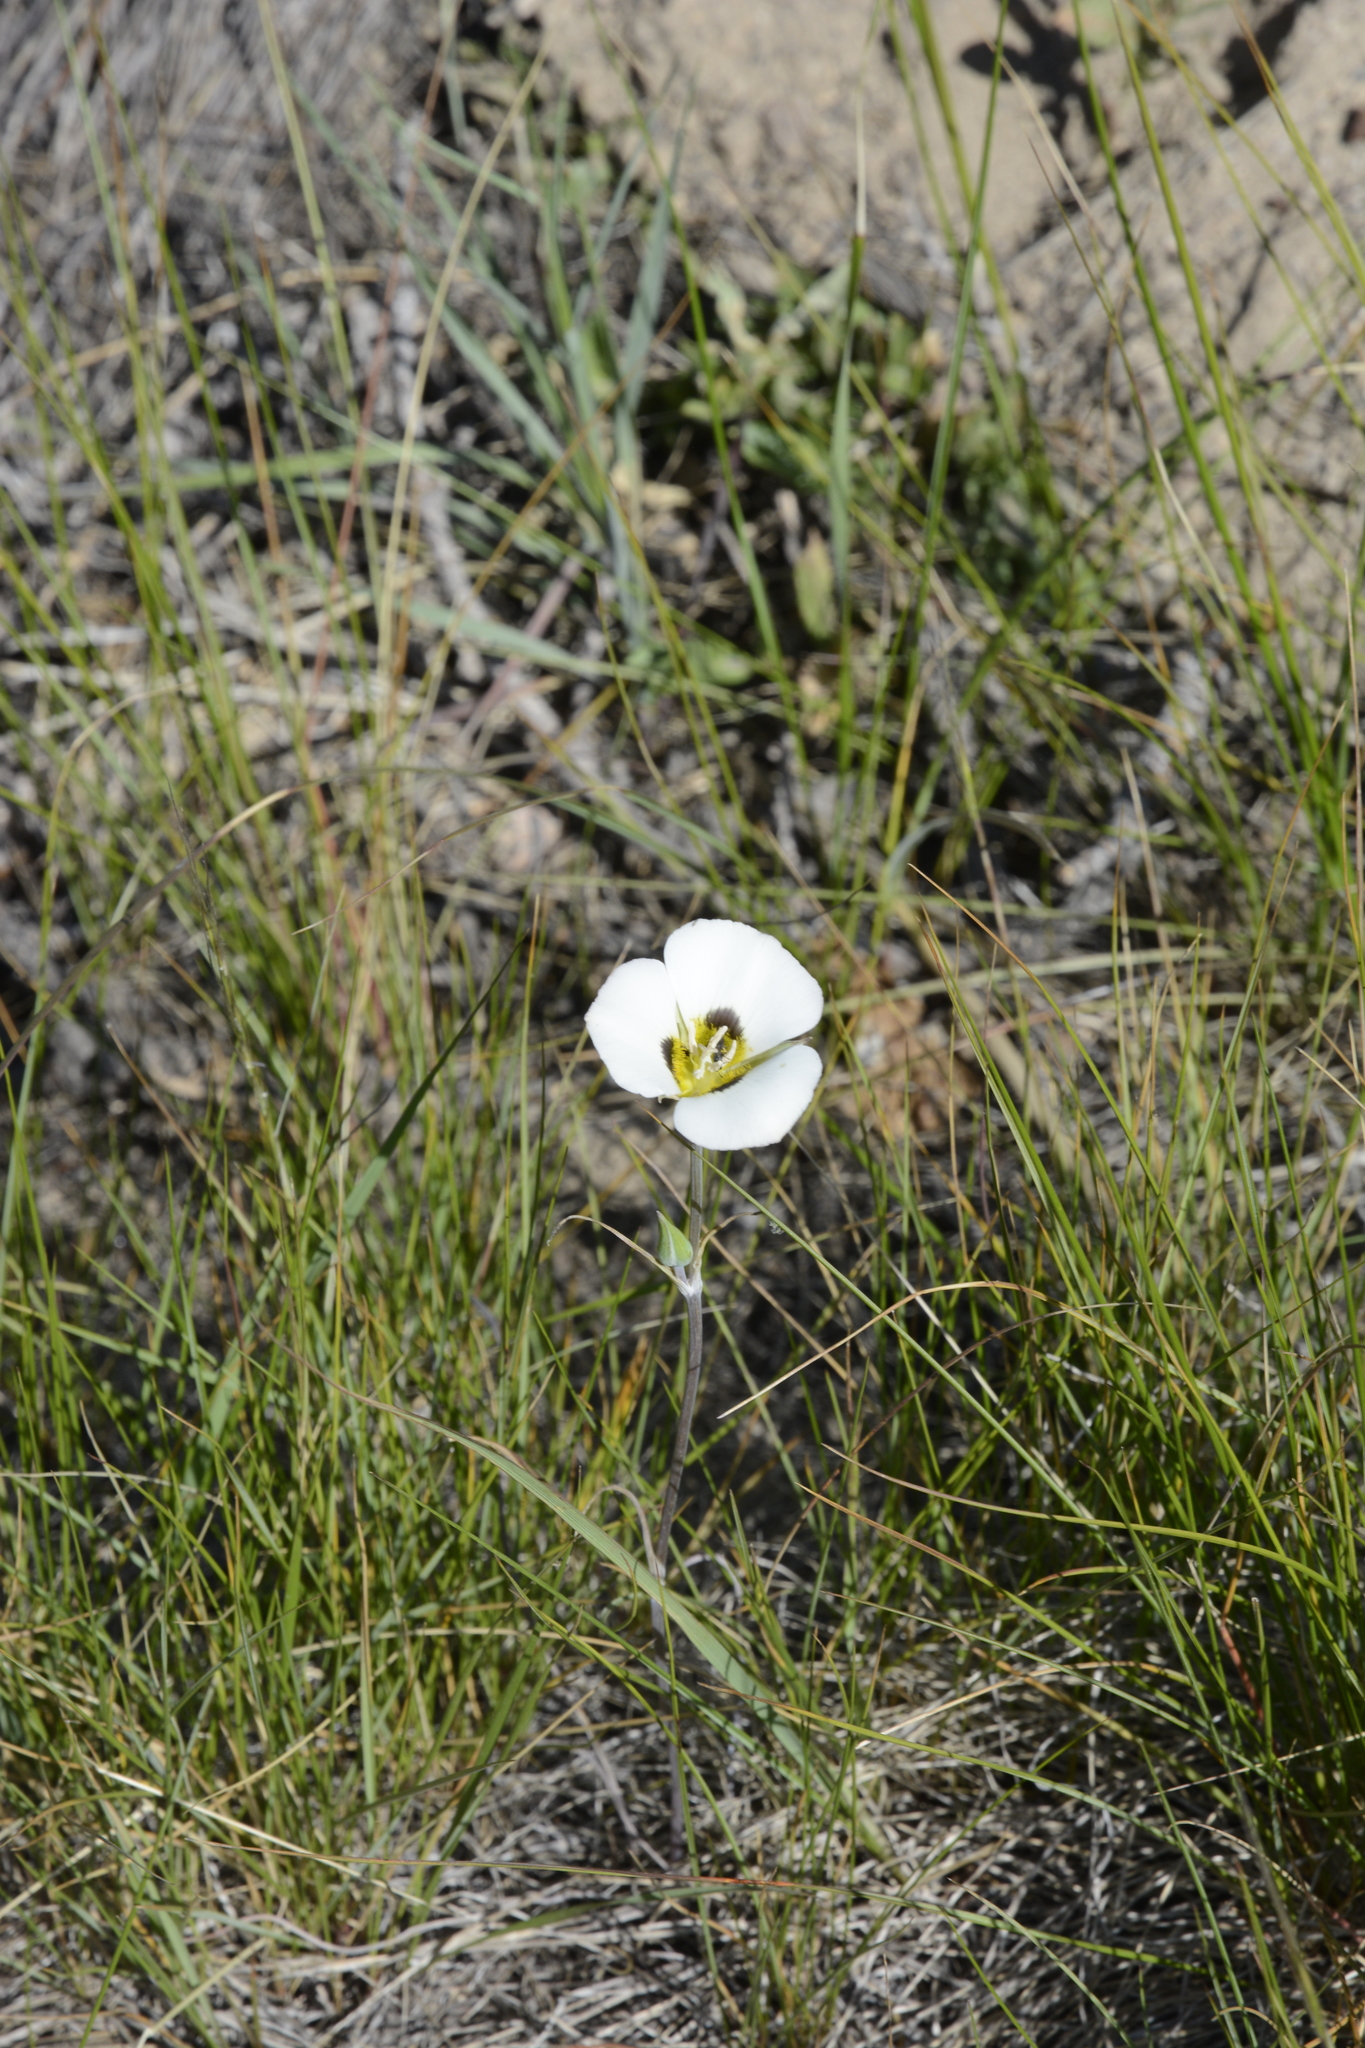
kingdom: Plantae
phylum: Tracheophyta
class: Liliopsida
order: Liliales
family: Liliaceae
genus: Calochortus
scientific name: Calochortus leichtlinii
